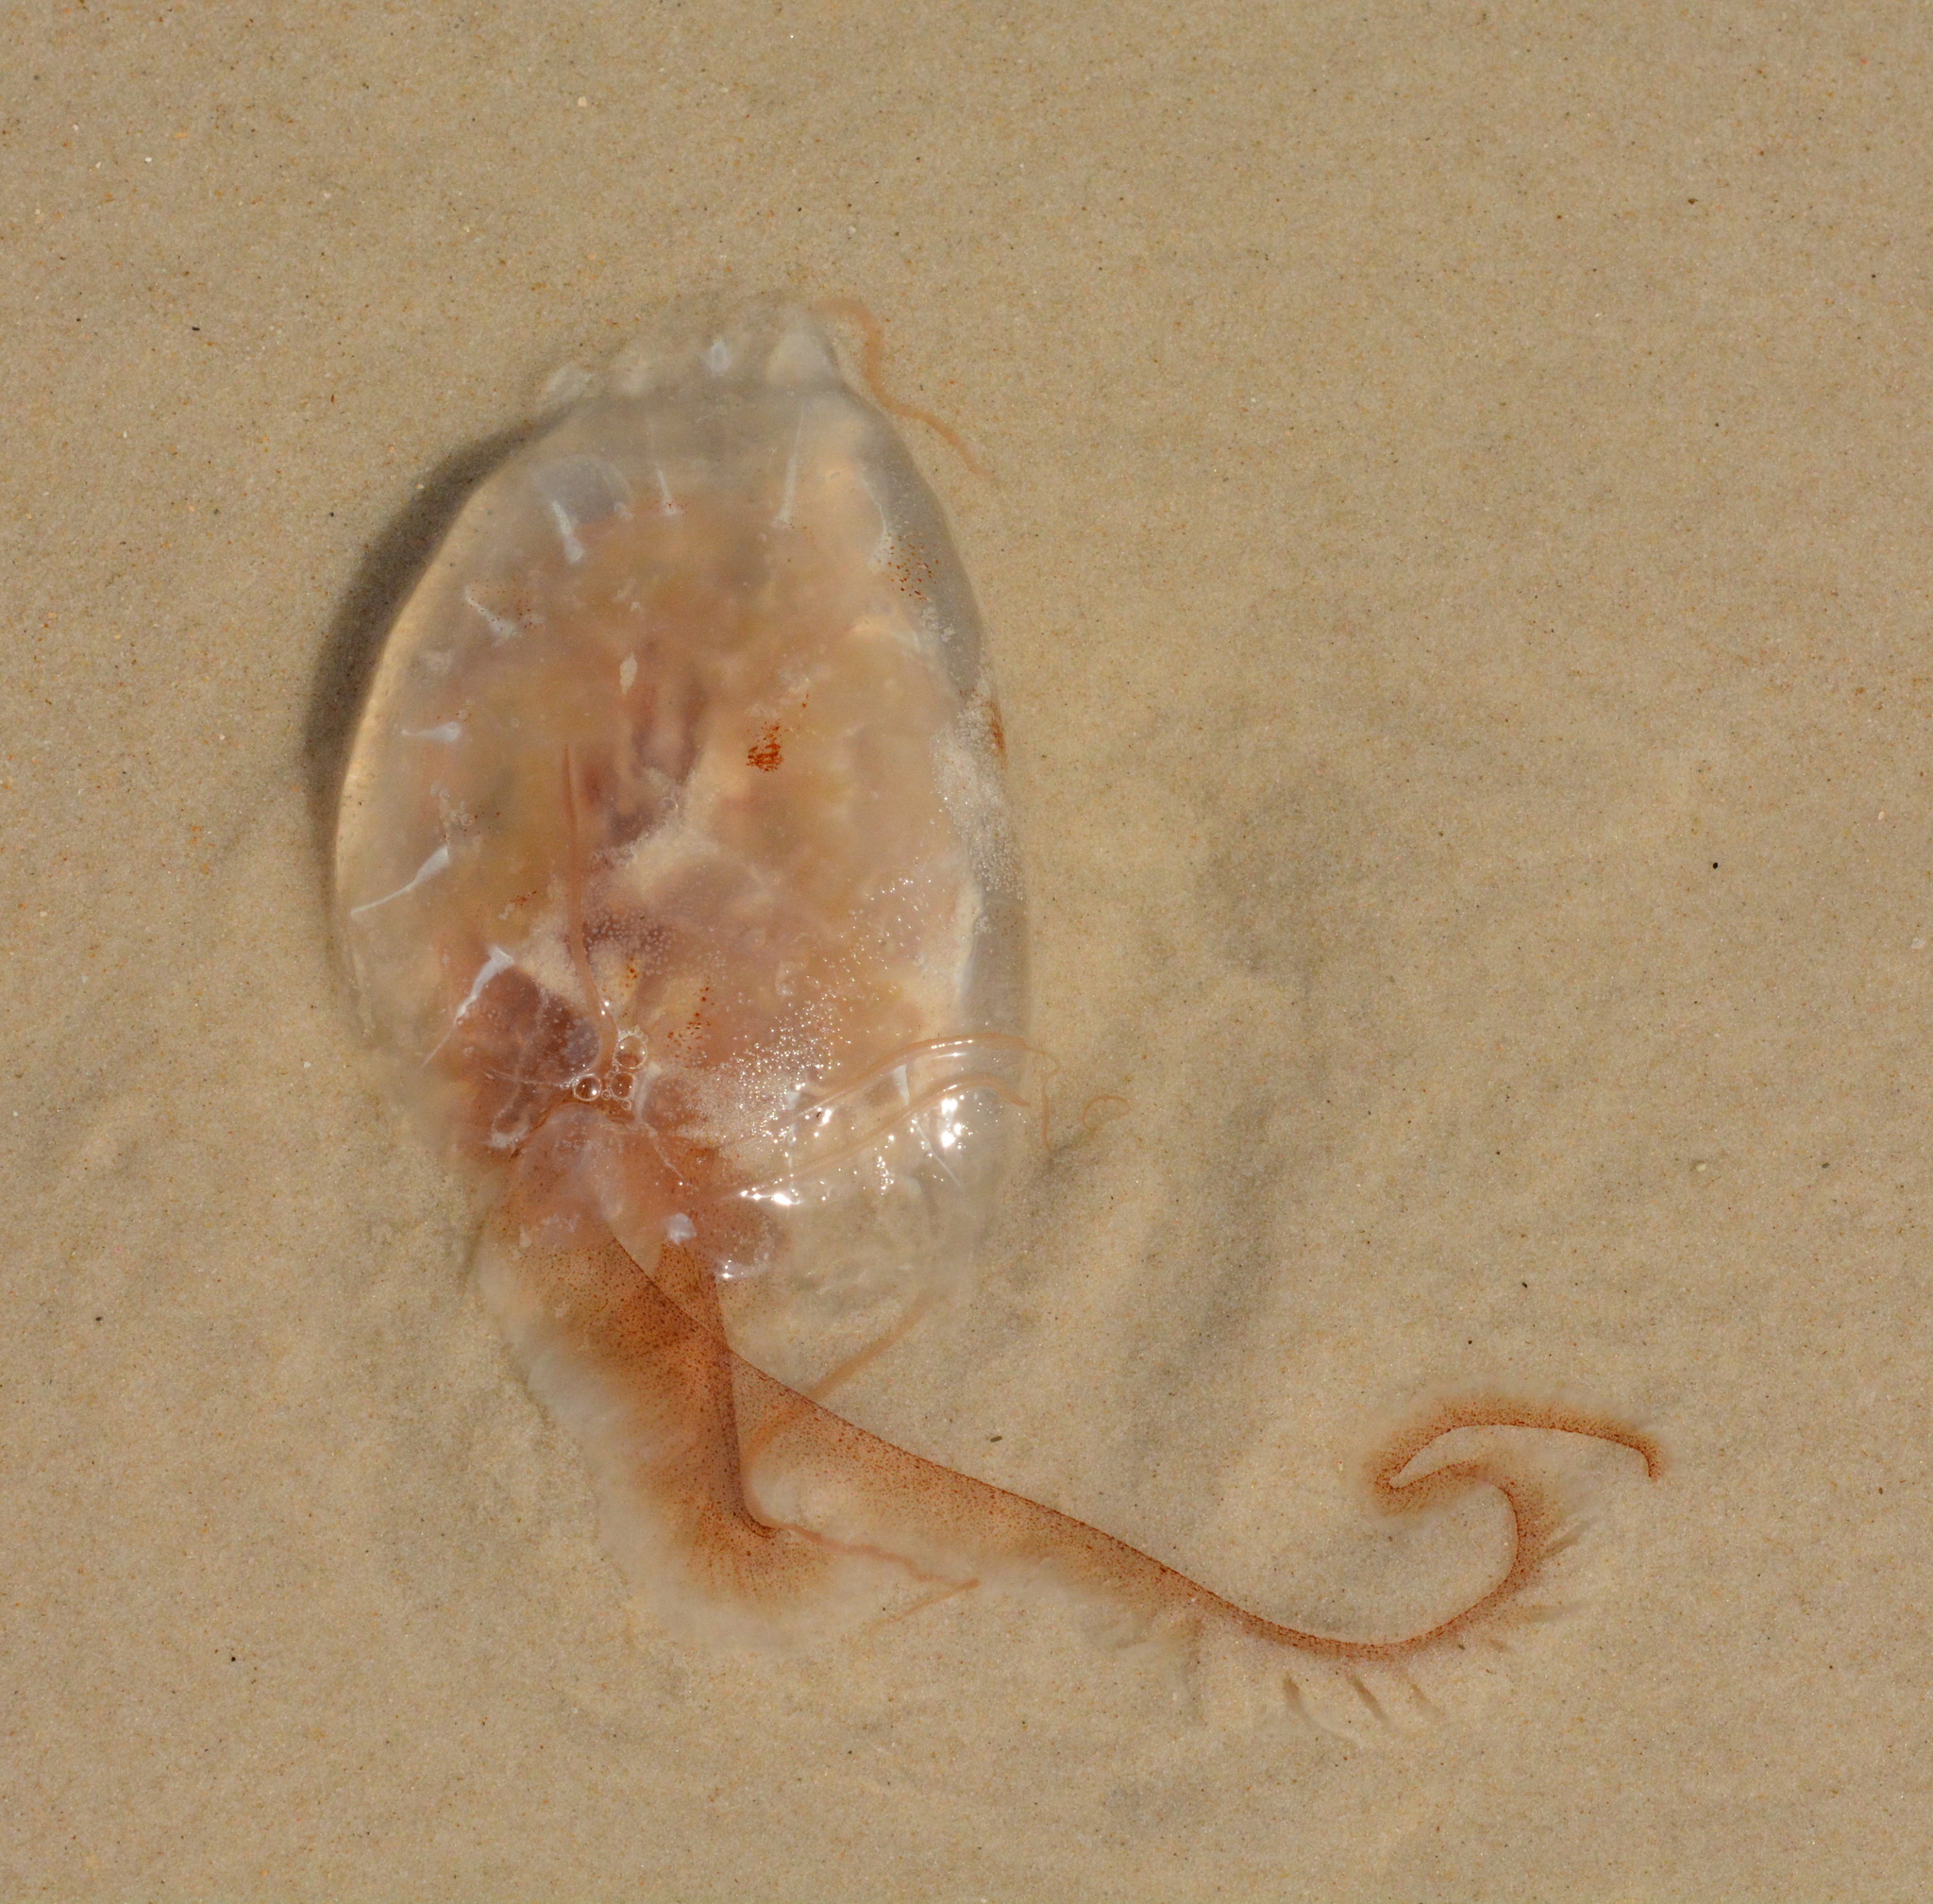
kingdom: Animalia
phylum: Cnidaria
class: Scyphozoa
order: Semaeostomeae
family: Pelagiidae
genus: Chrysaora
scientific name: Chrysaora chesapeakei
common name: Bay nettle
